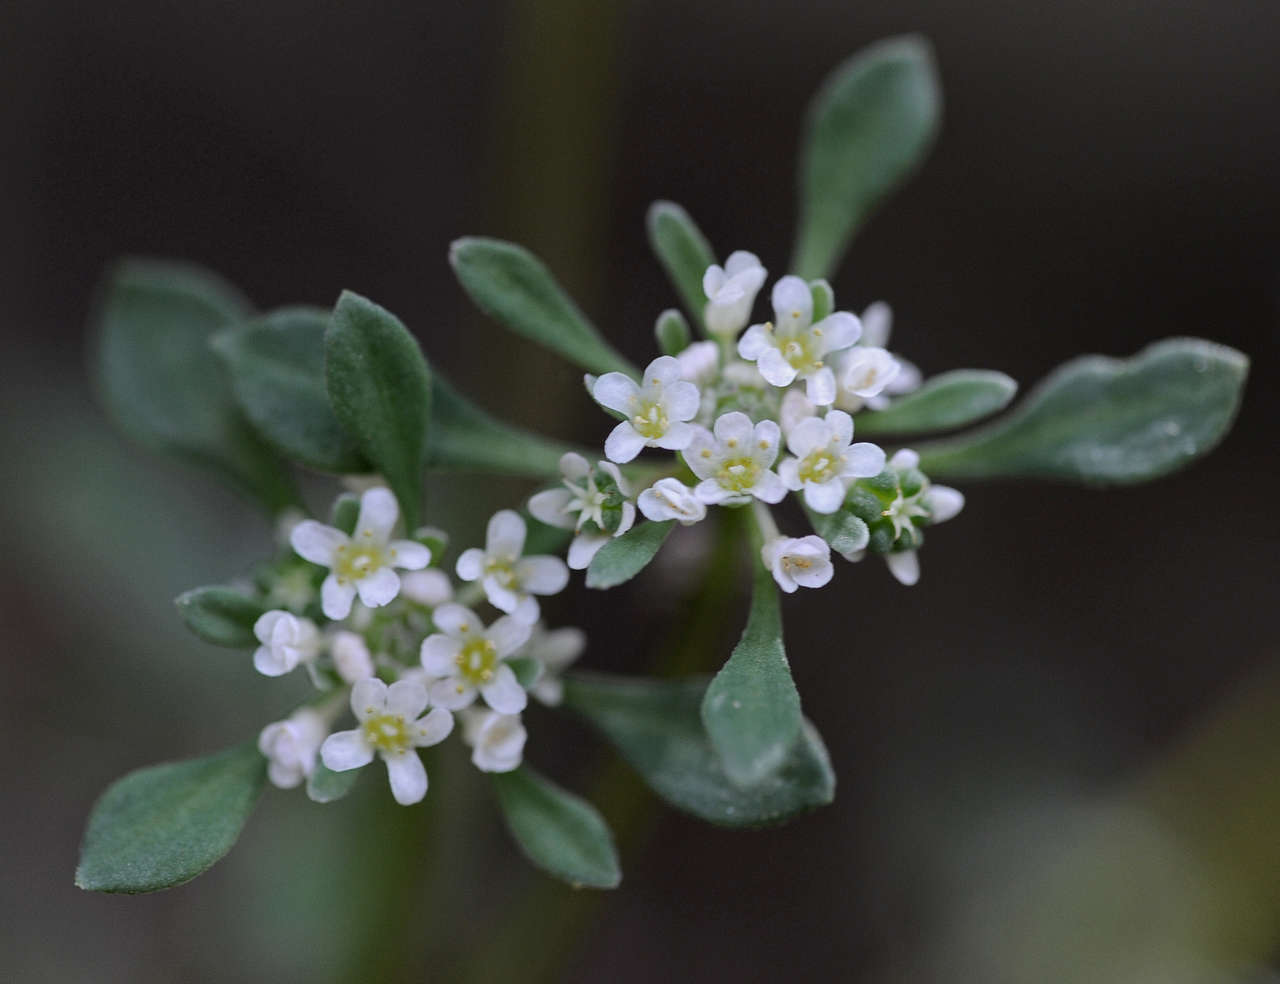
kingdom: Plantae
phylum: Tracheophyta
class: Magnoliopsida
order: Malpighiales
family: Phyllanthaceae
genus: Poranthera
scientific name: Poranthera microphylla
